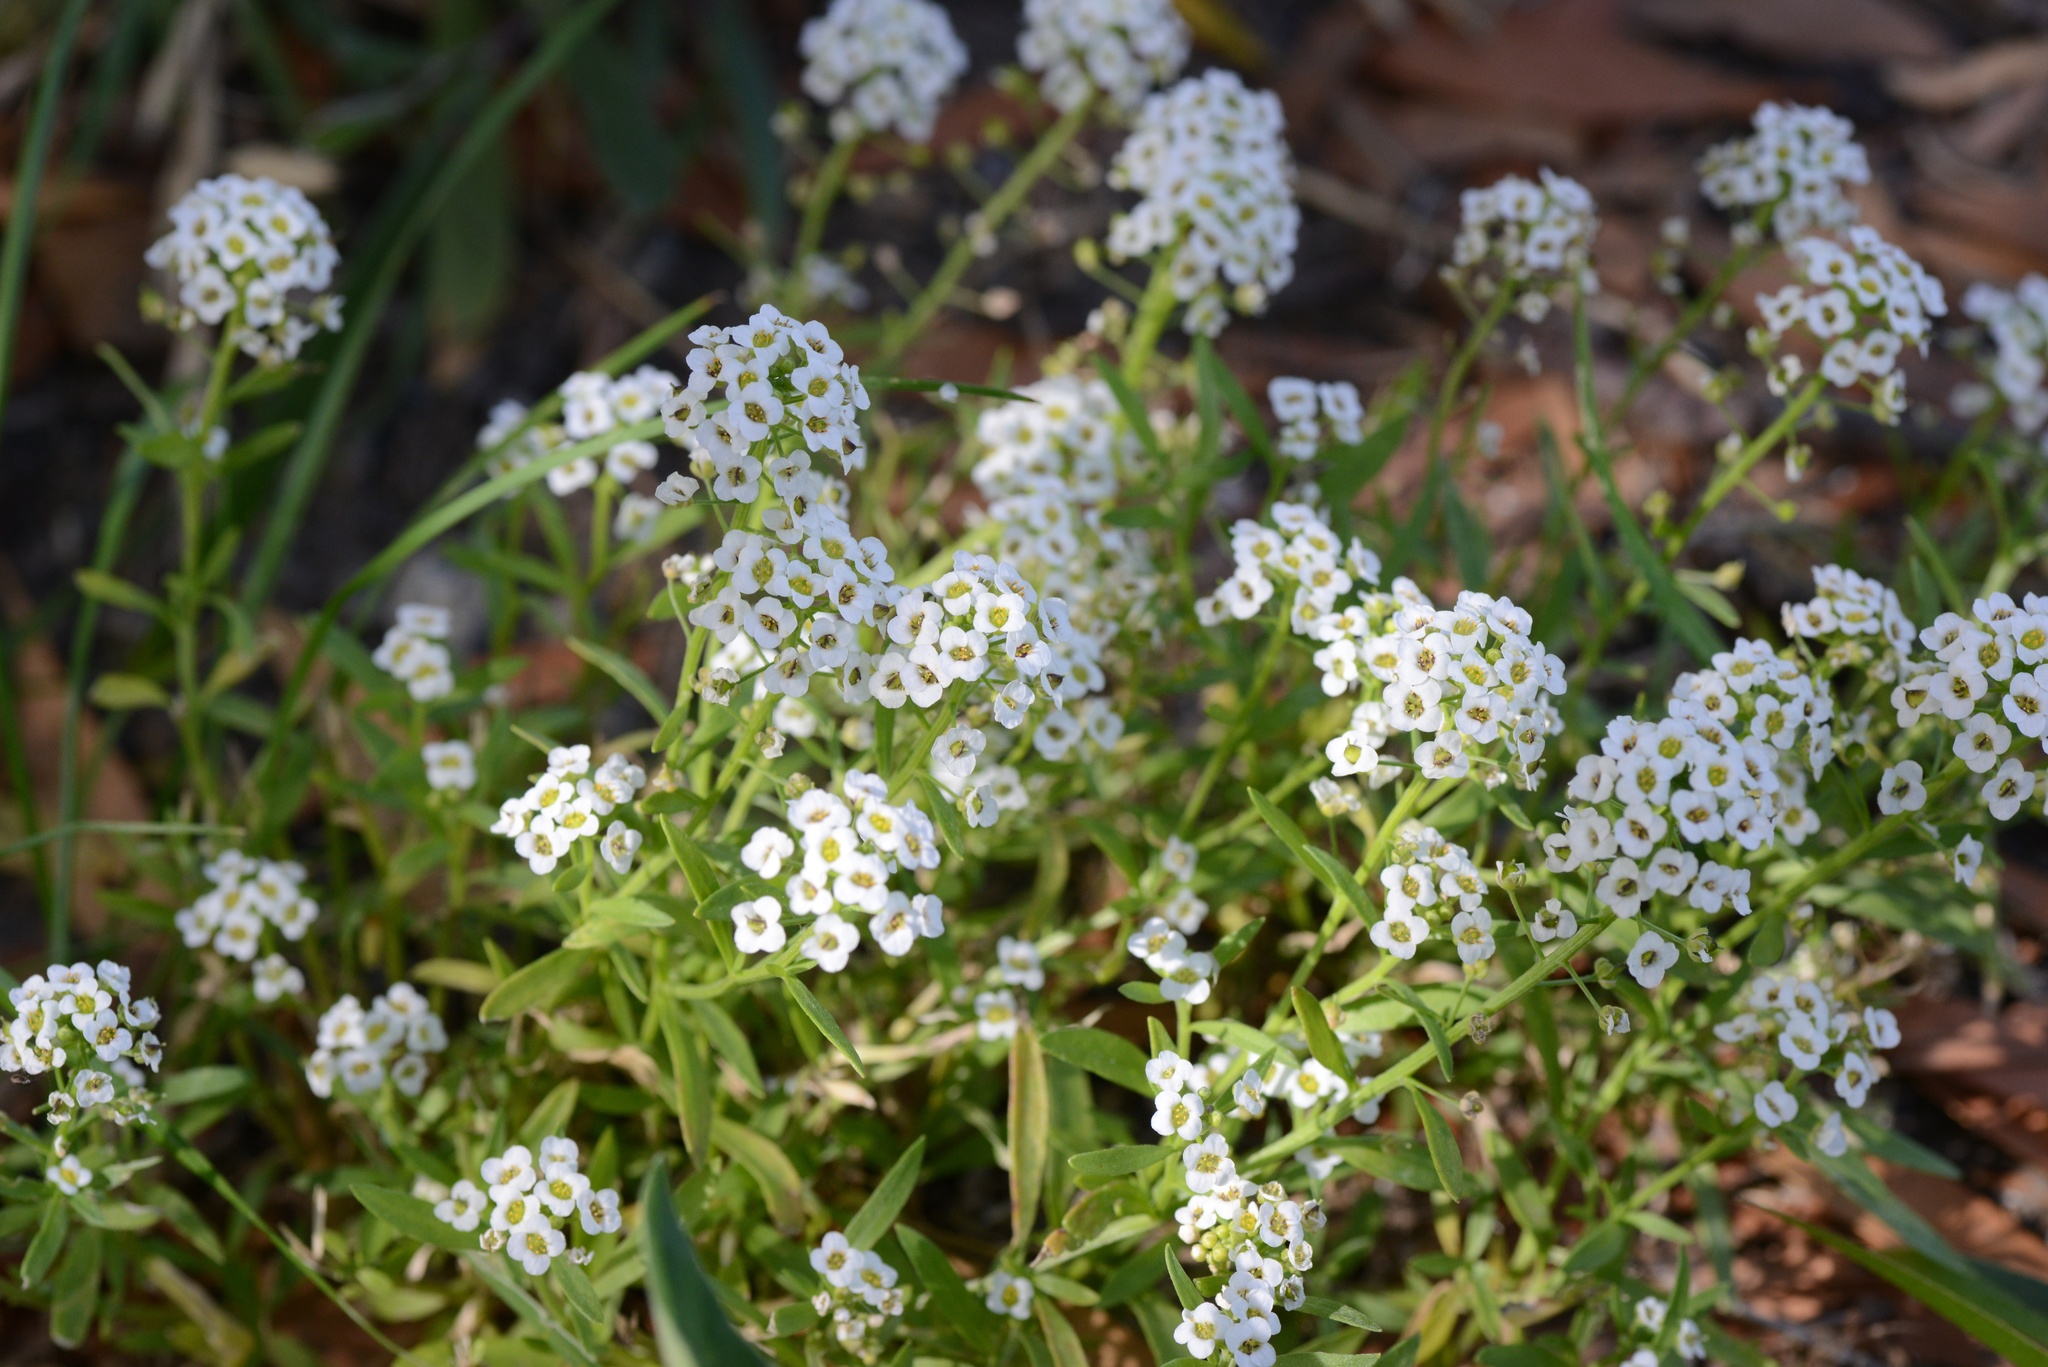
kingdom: Plantae
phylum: Tracheophyta
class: Magnoliopsida
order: Brassicales
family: Brassicaceae
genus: Lobularia
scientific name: Lobularia maritima
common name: Sweet alison
